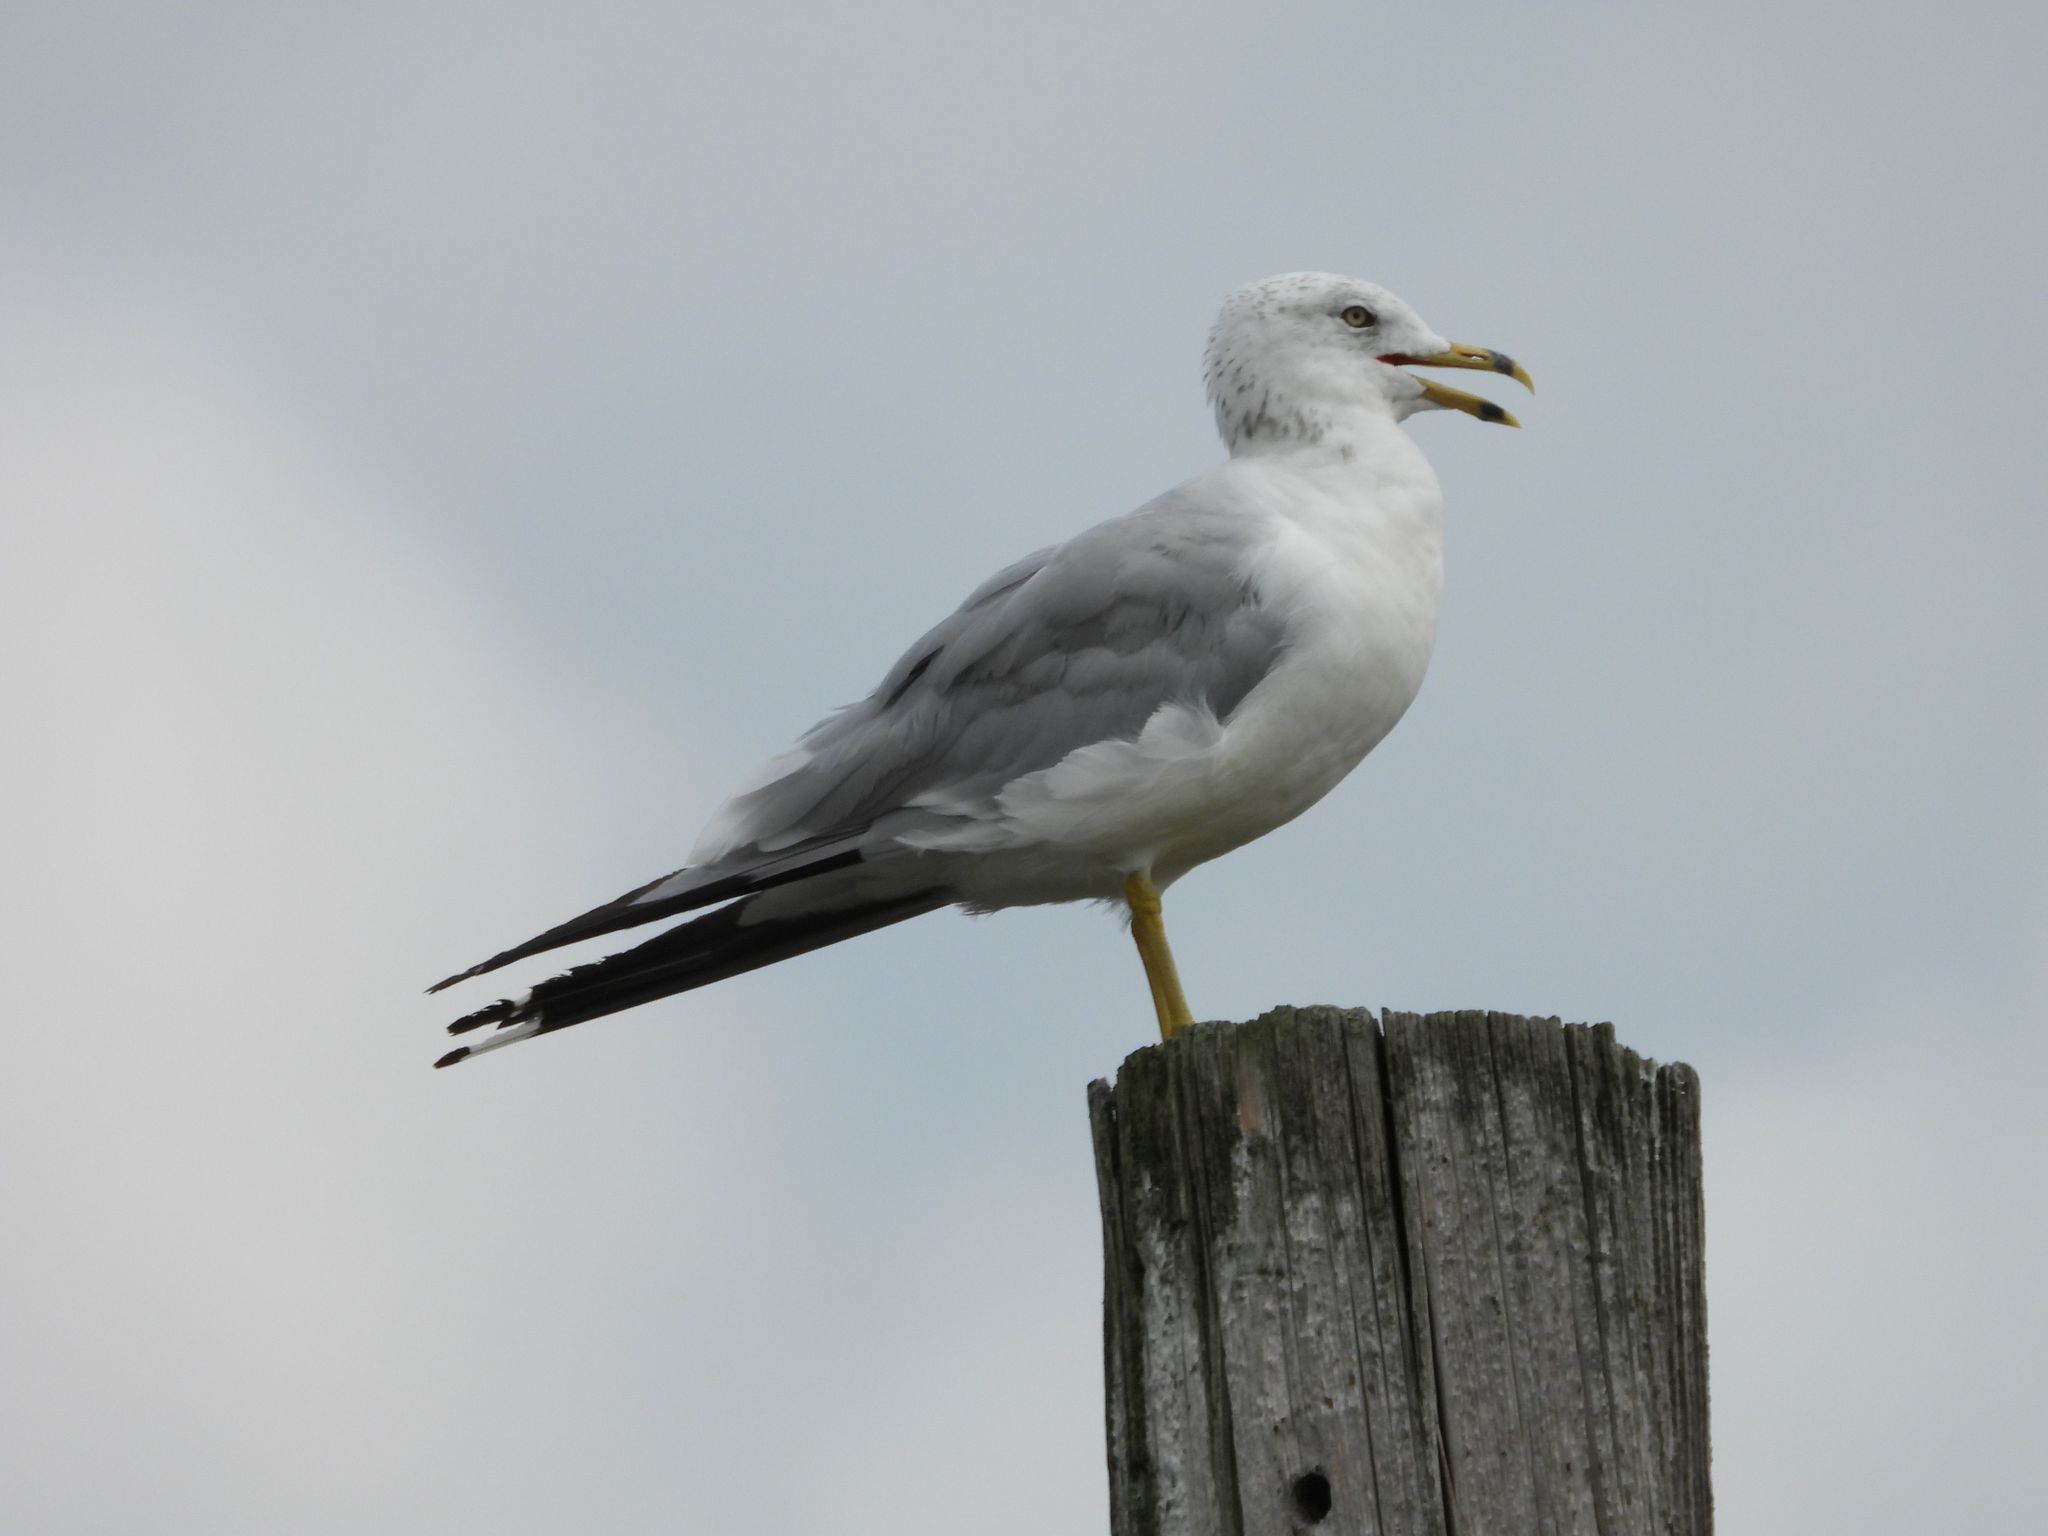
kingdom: Animalia
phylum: Chordata
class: Aves
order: Charadriiformes
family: Laridae
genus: Larus
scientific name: Larus delawarensis
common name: Ring-billed gull
